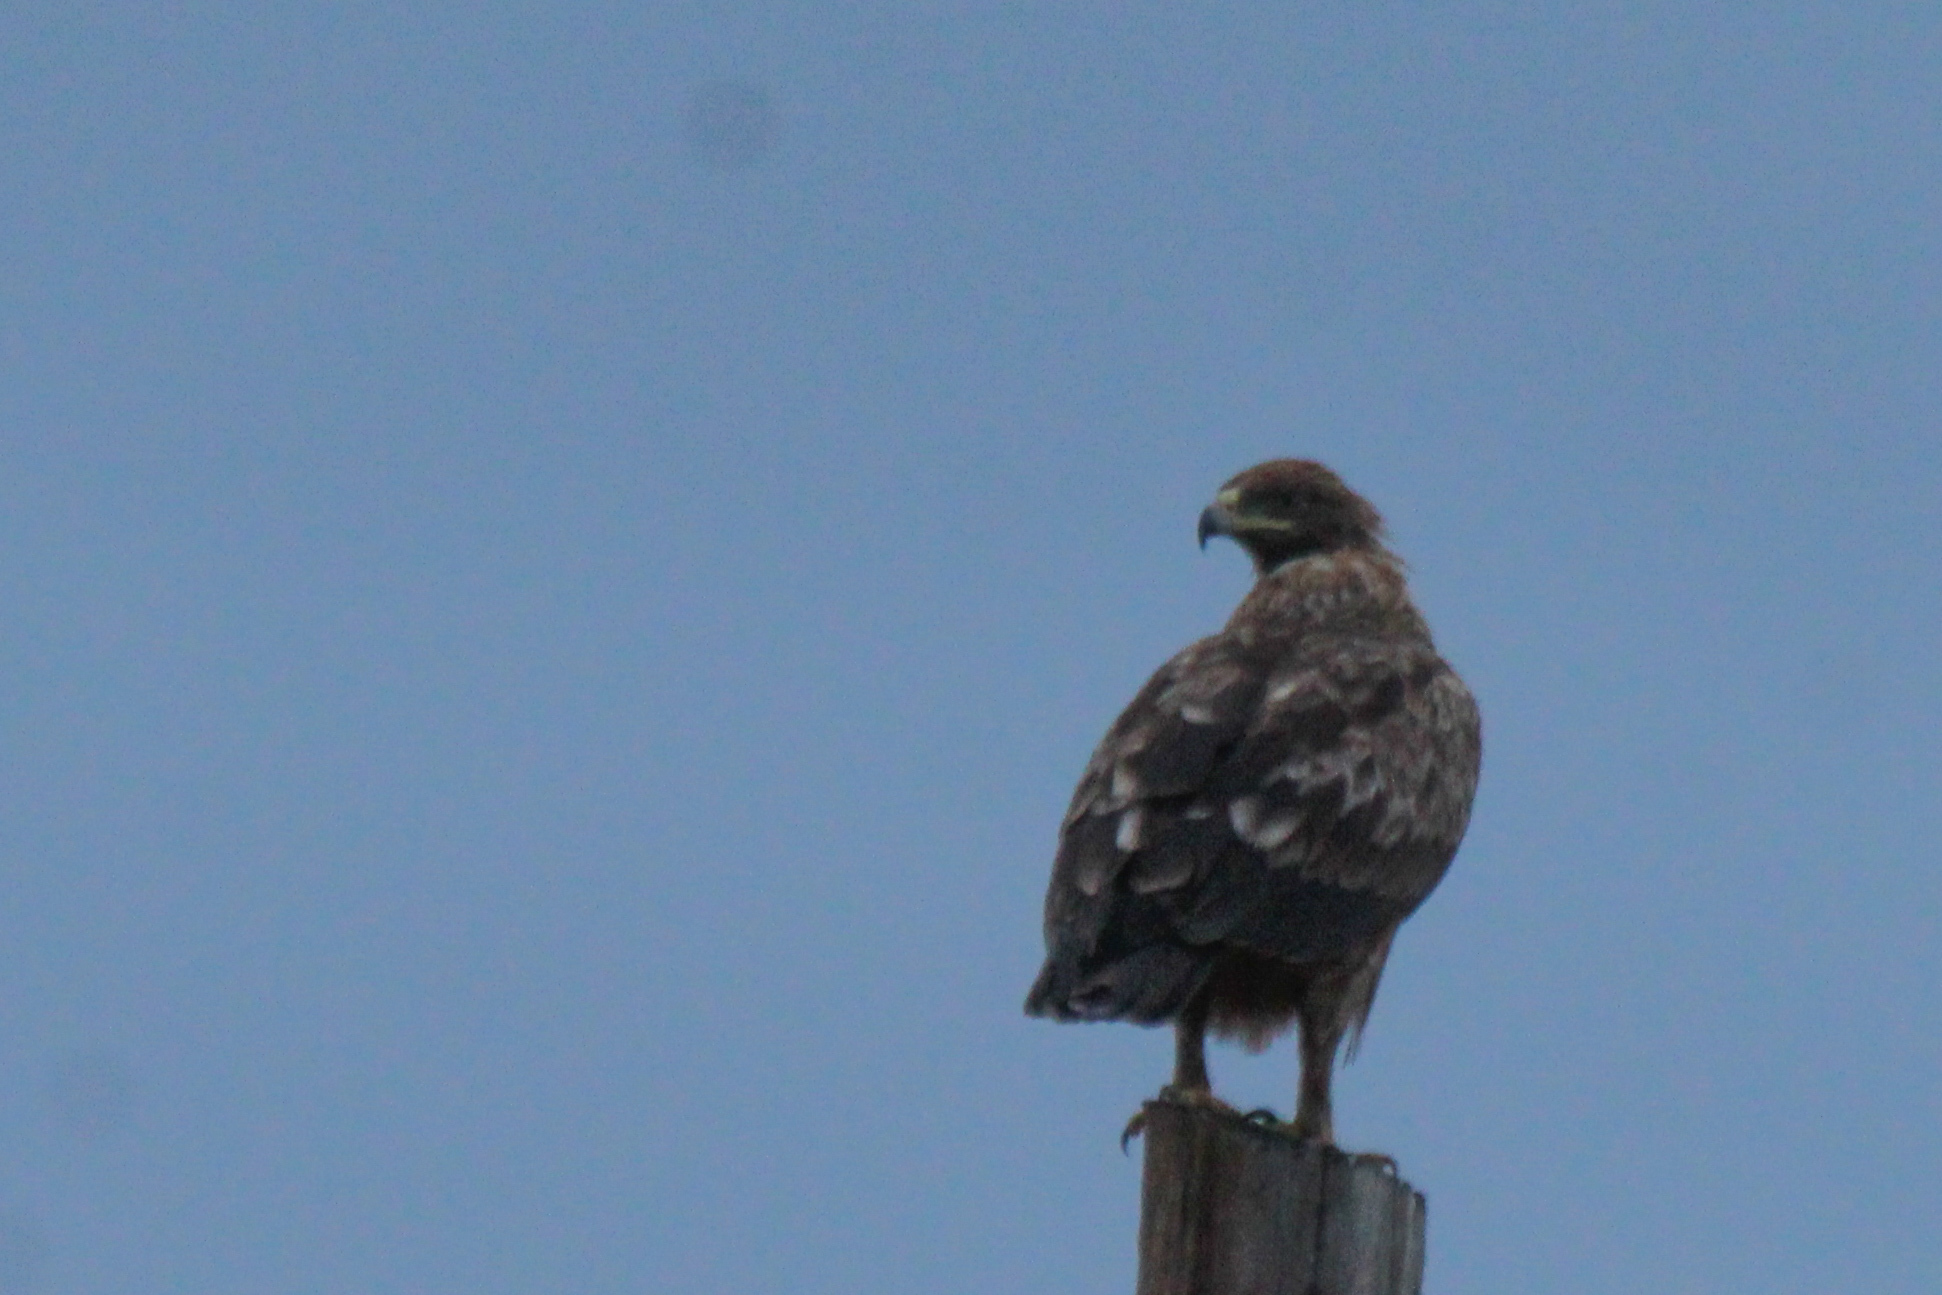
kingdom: Animalia
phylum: Chordata
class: Aves
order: Accipitriformes
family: Accipitridae
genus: Aquila
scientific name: Aquila clanga
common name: Greater spotted eagle
